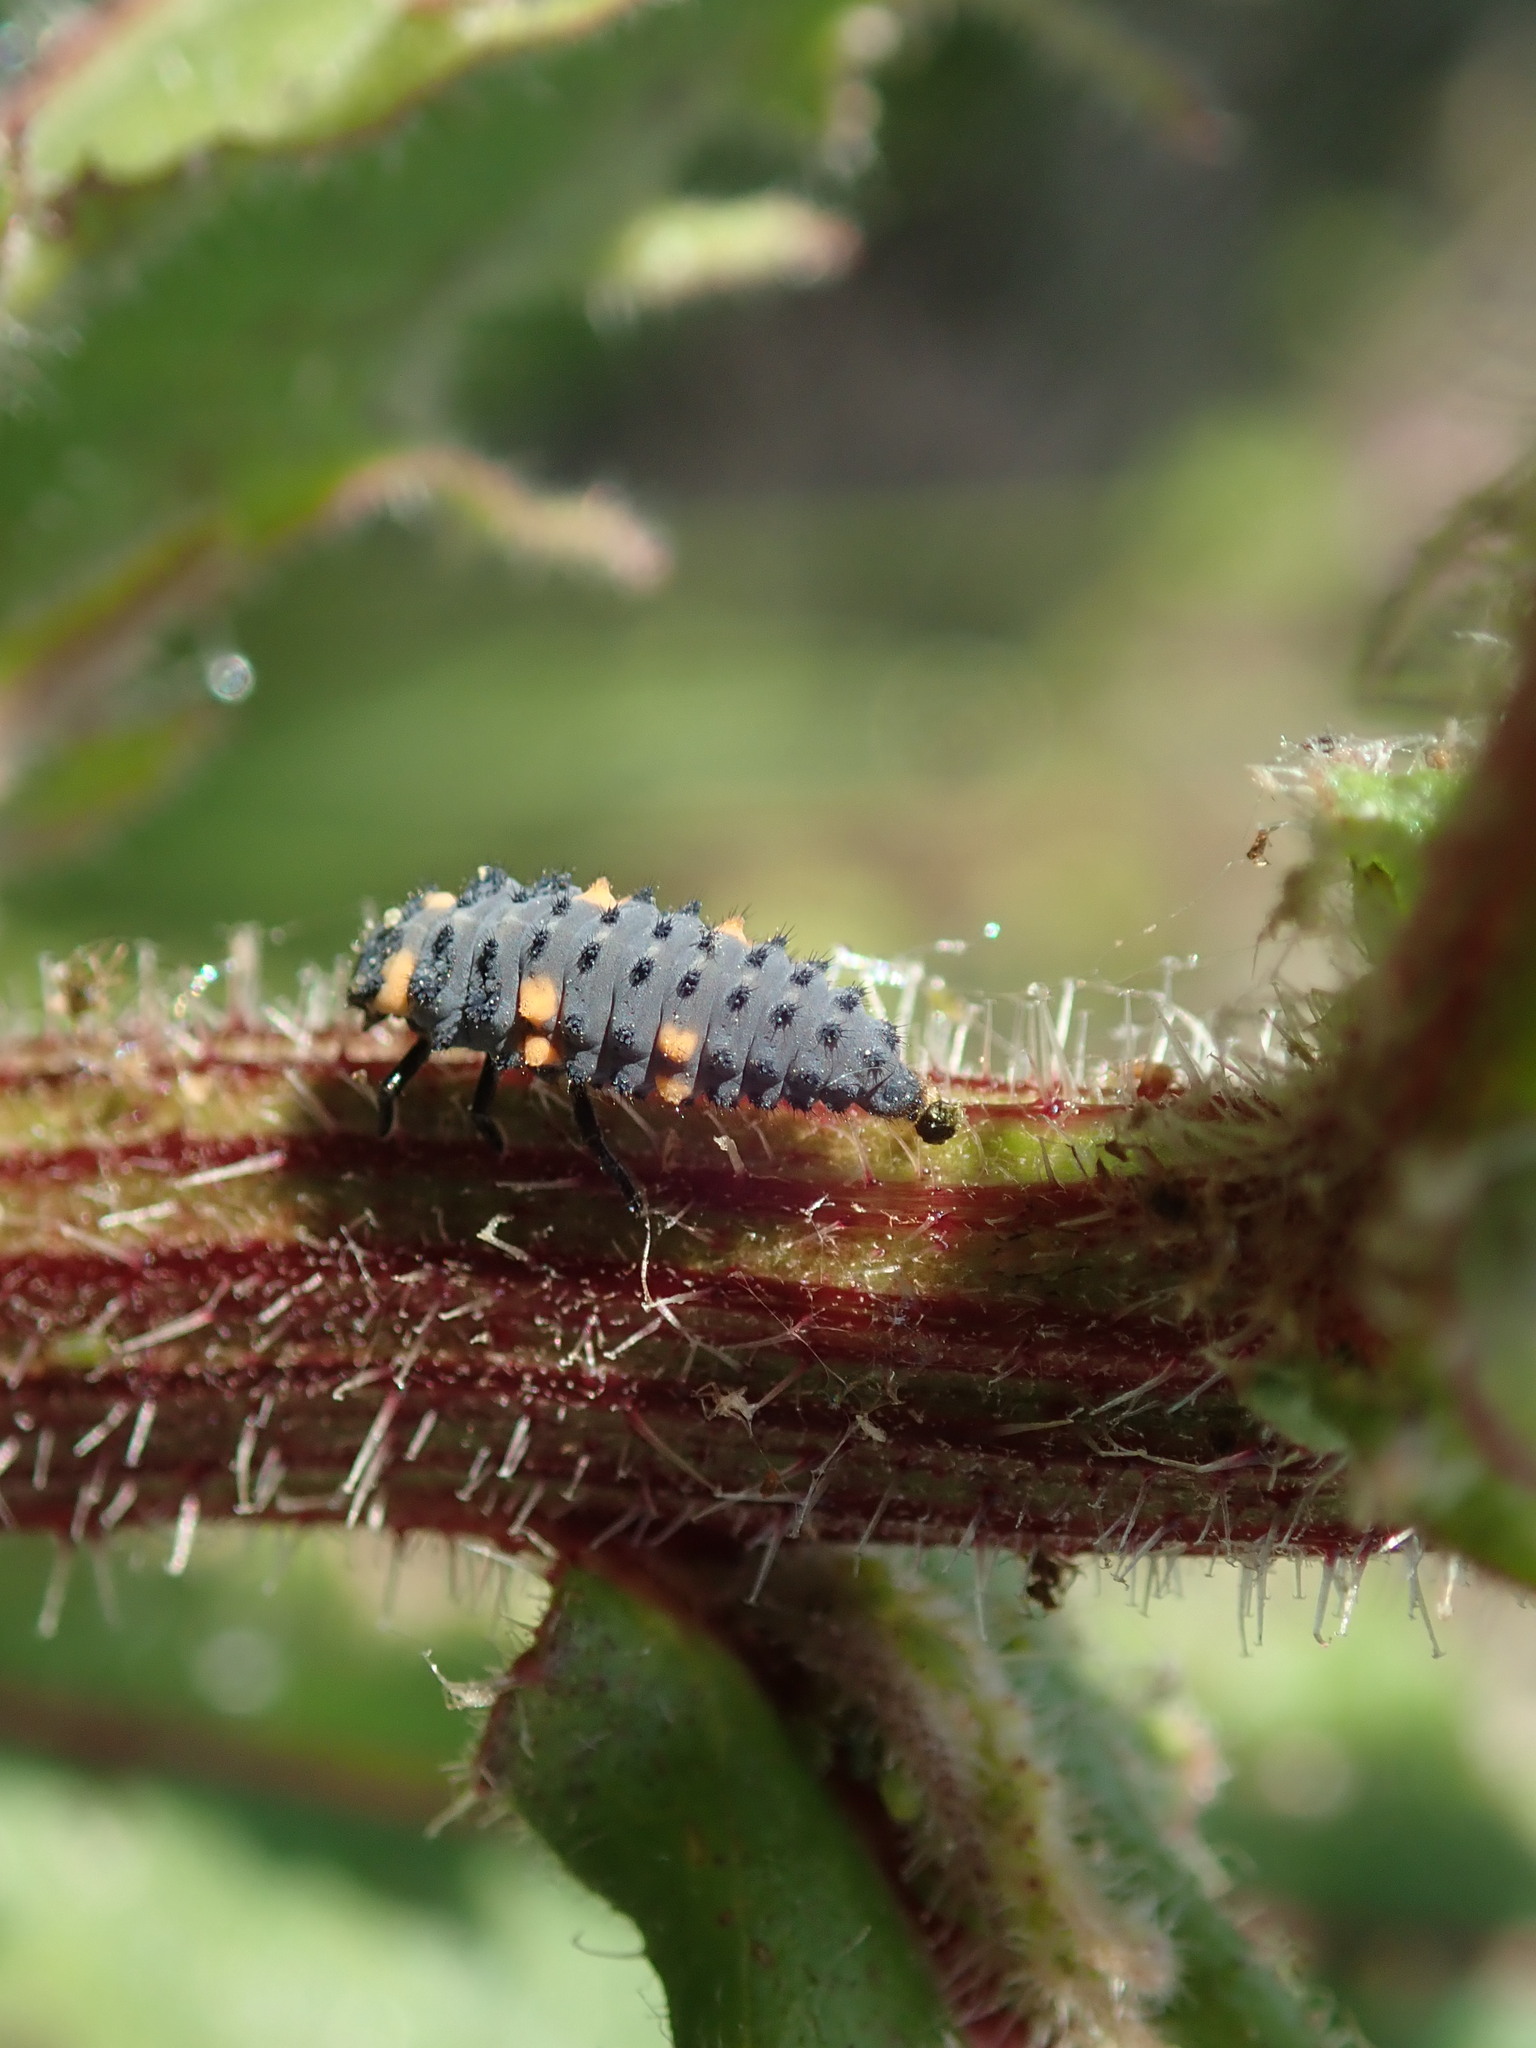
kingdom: Animalia
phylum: Arthropoda
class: Insecta
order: Coleoptera
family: Coccinellidae
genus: Coccinella
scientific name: Coccinella septempunctata
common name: Sevenspotted lady beetle
